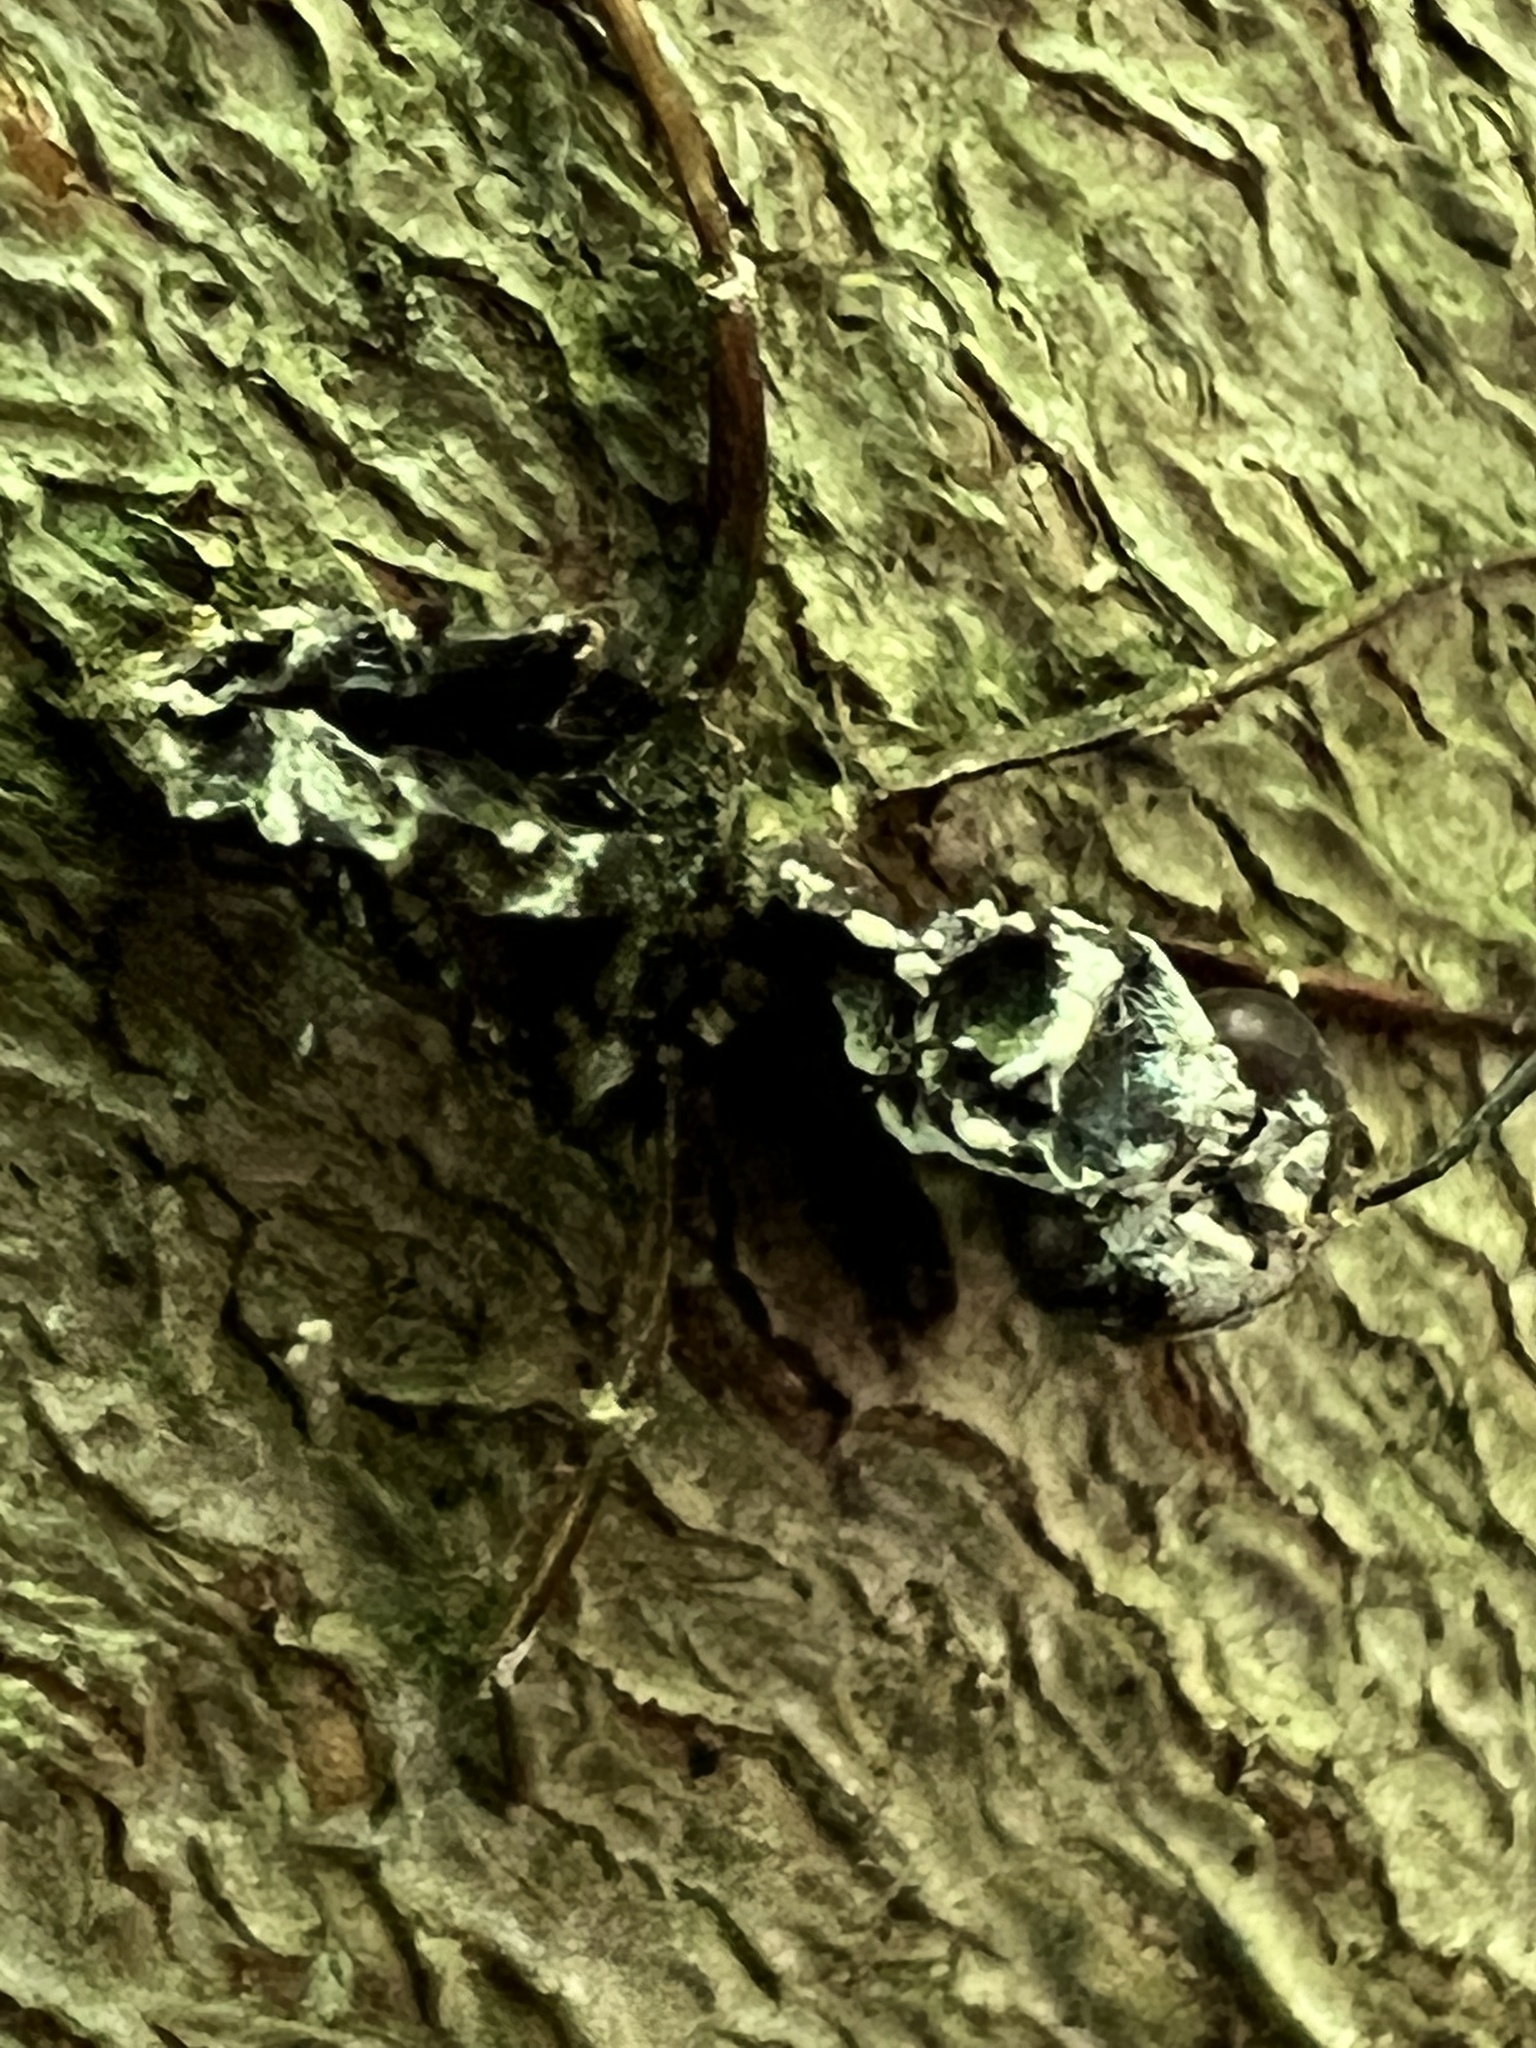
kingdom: Fungi
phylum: Ascomycota
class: Sordariomycetes
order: Hypocreales
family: Cordycipitaceae
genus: Beauveria
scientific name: Beauveria bassiana
